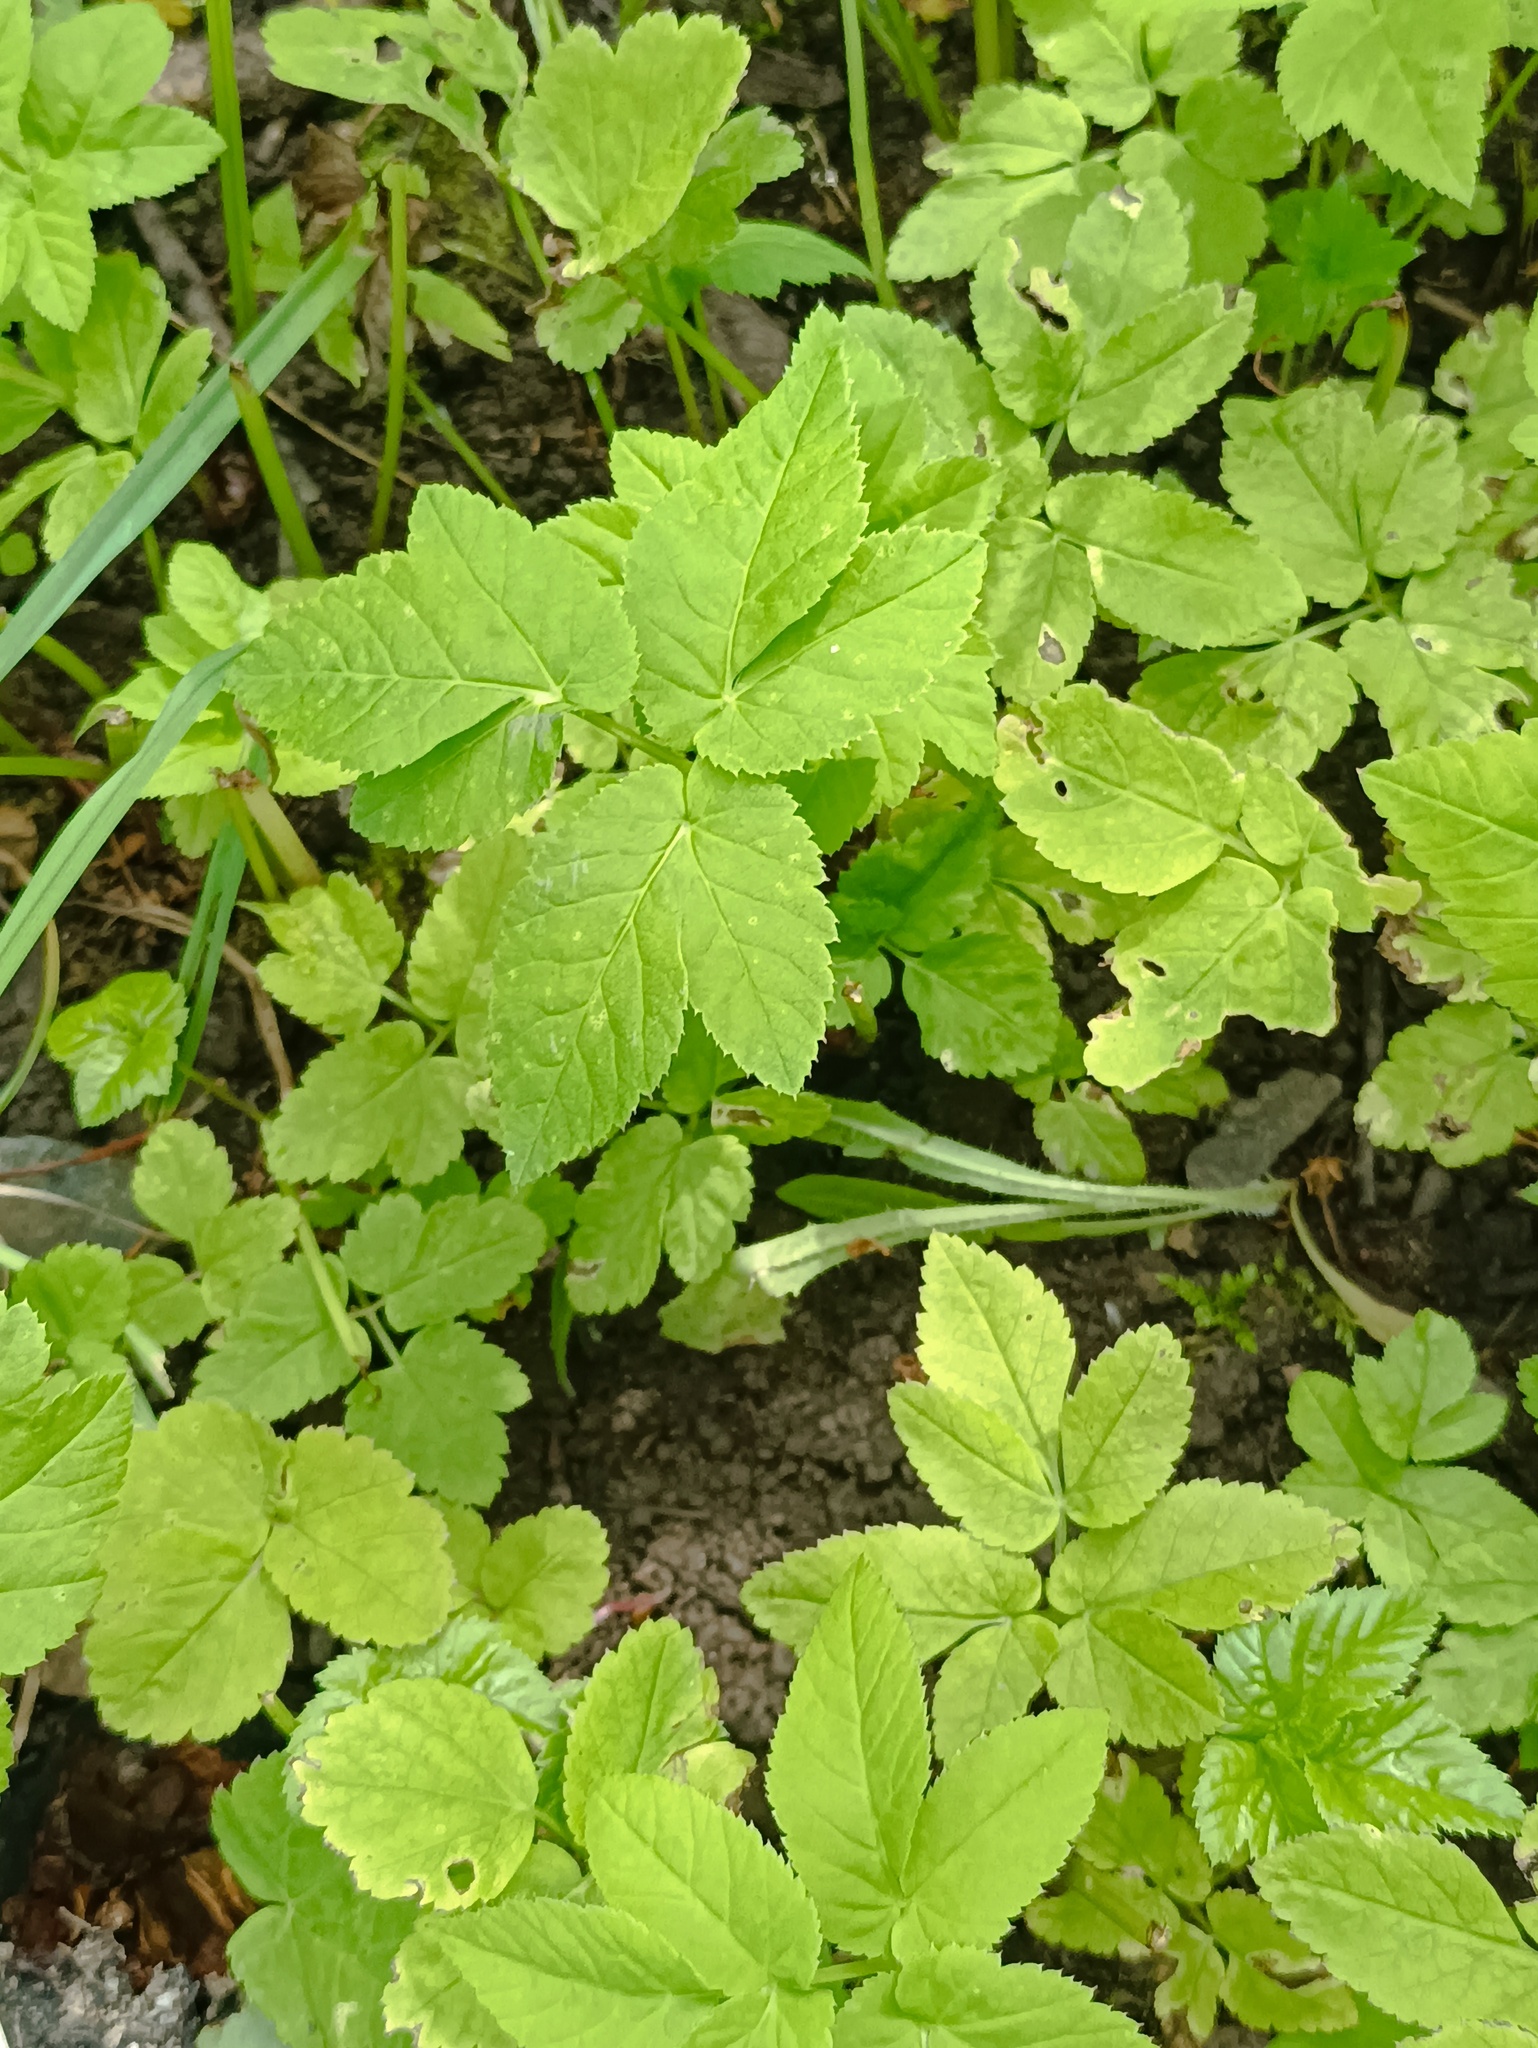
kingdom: Plantae
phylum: Tracheophyta
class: Magnoliopsida
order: Apiales
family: Apiaceae
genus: Aegopodium
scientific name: Aegopodium podagraria
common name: Ground-elder
